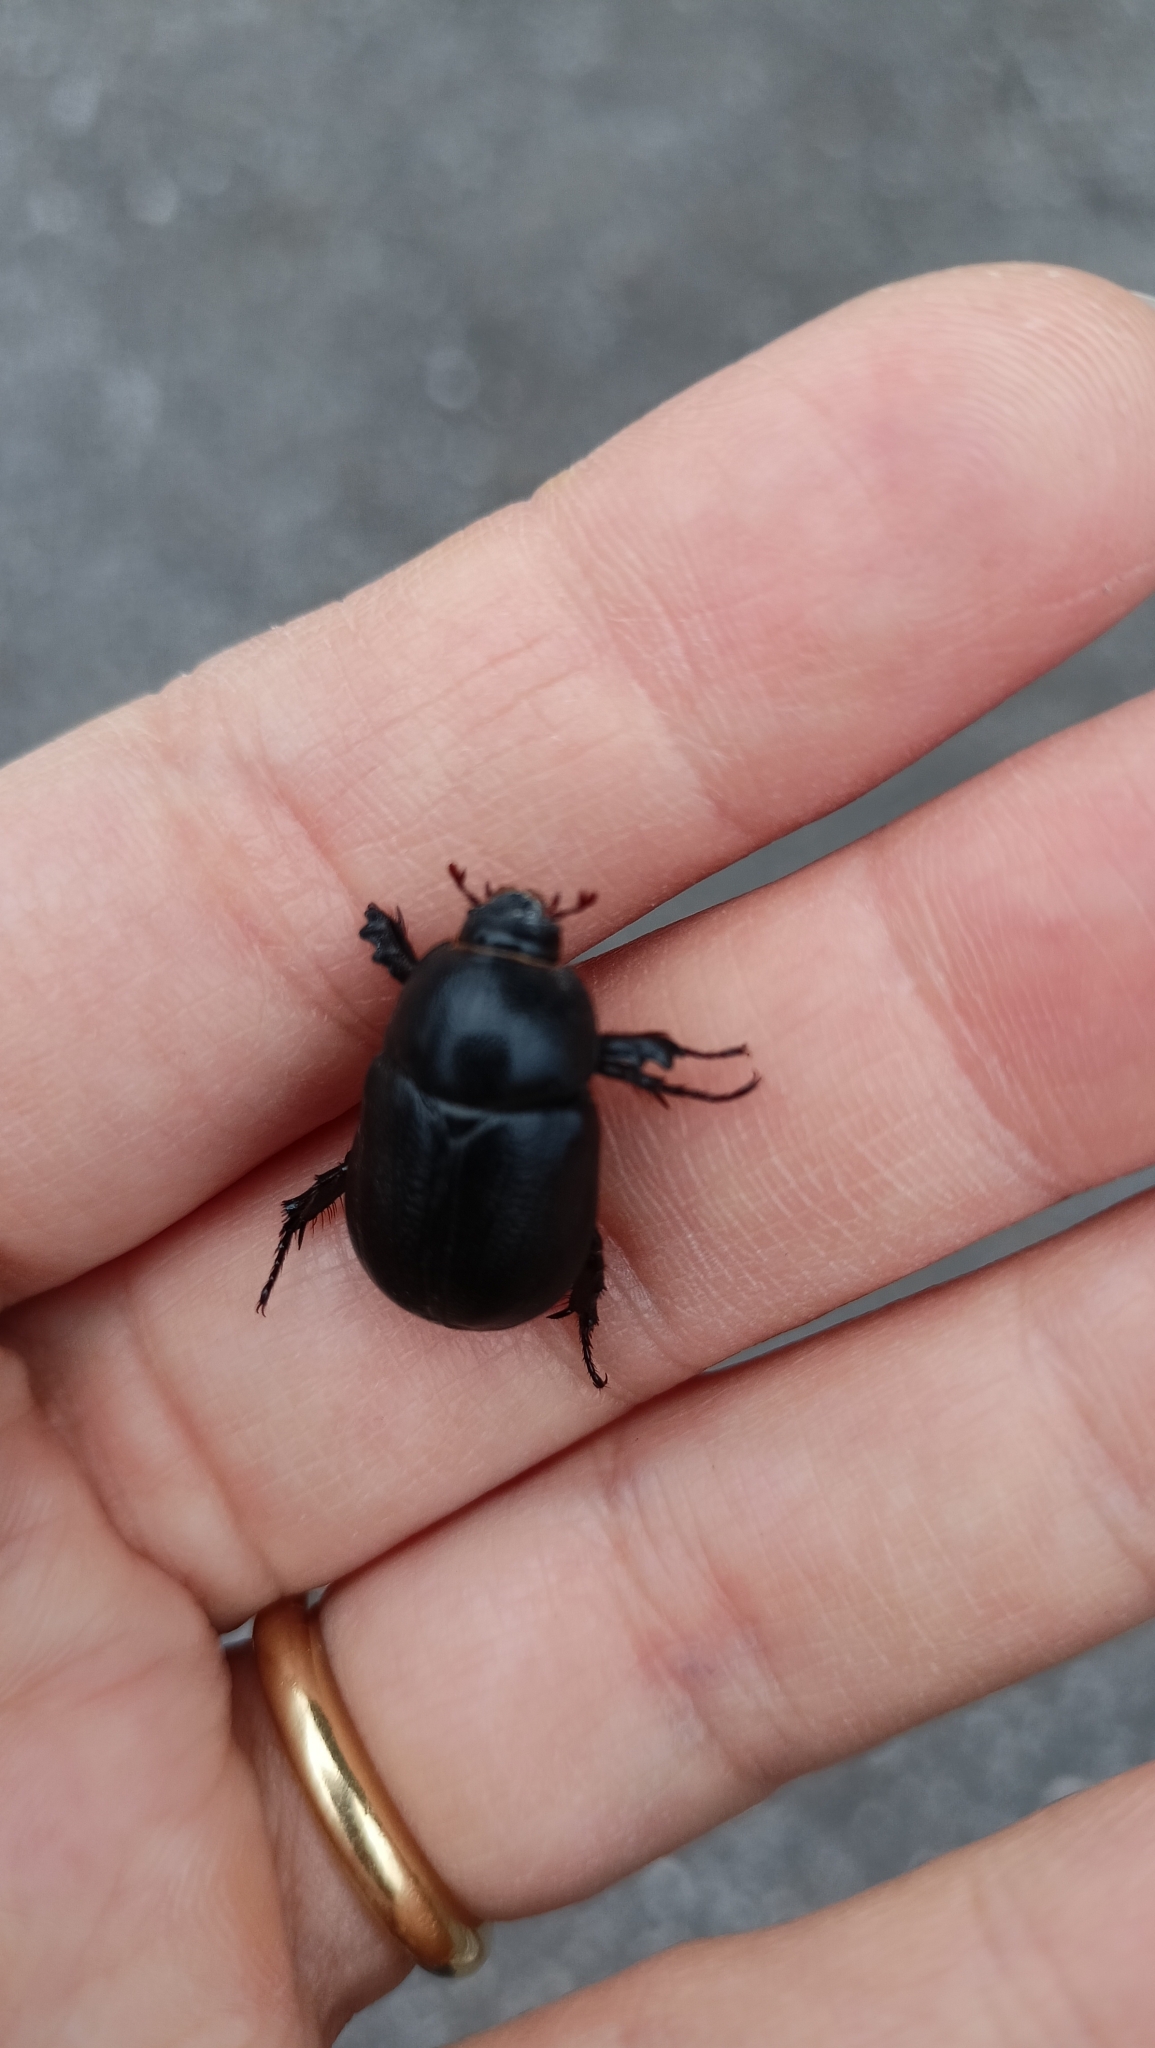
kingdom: Animalia
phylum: Arthropoda
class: Insecta
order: Coleoptera
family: Scarabaeidae
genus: Pentodon
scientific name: Pentodon bidens
